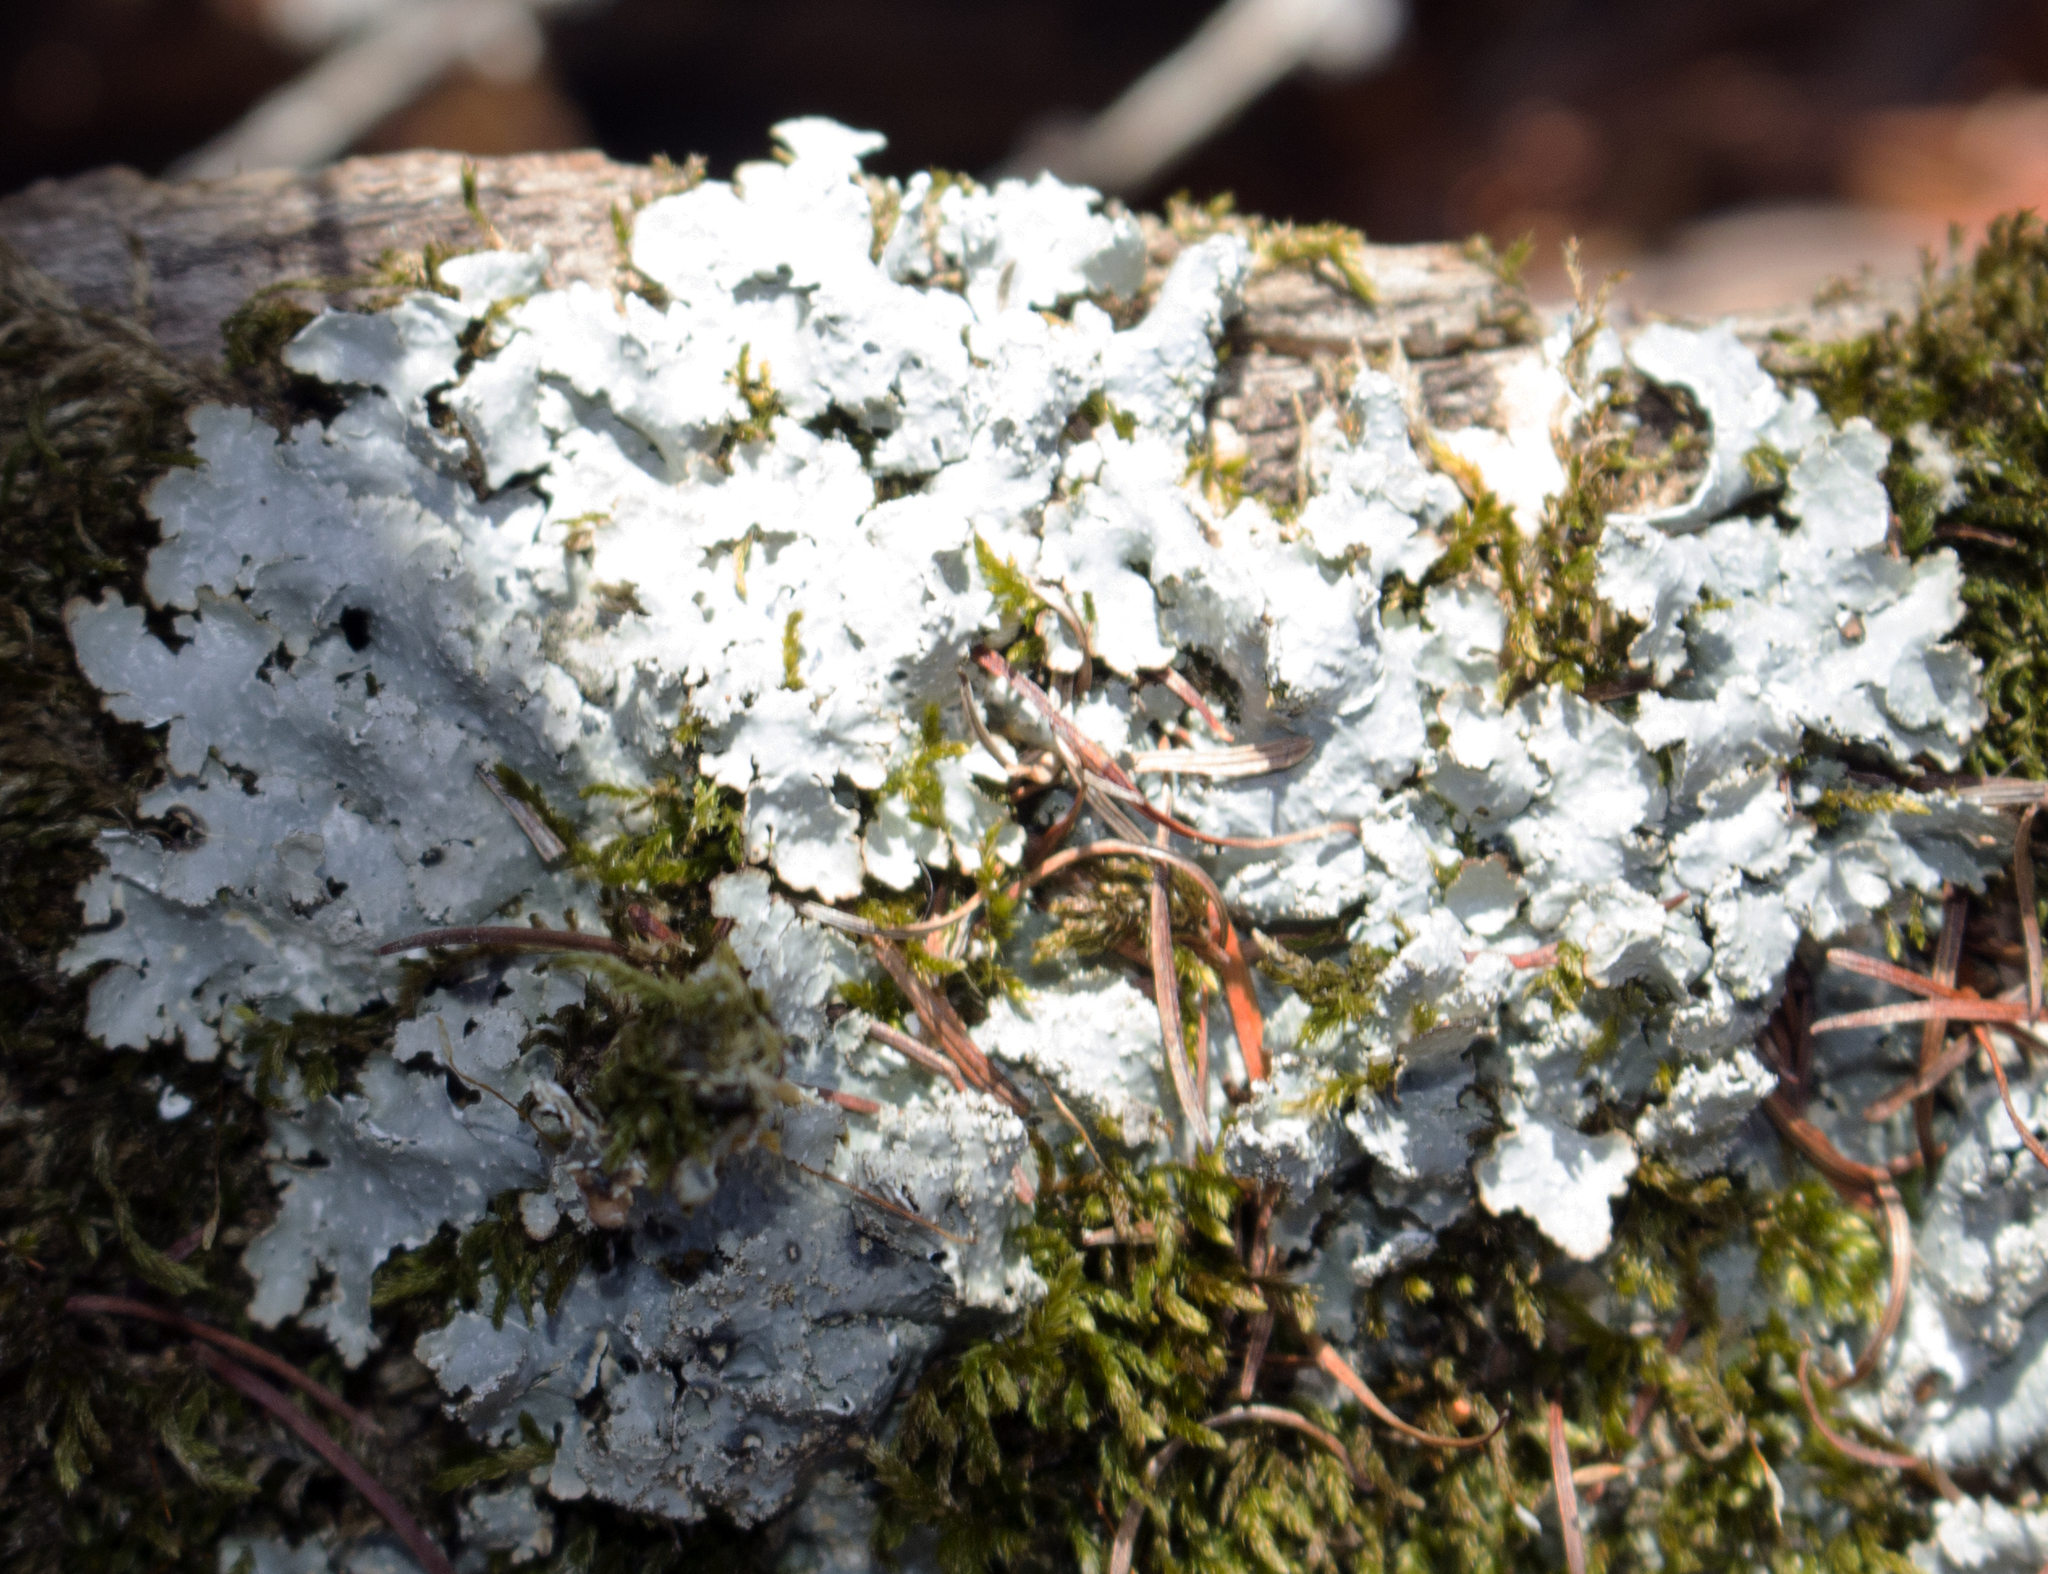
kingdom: Fungi
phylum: Ascomycota
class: Lecanoromycetes
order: Lecanorales
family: Parmeliaceae
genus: Punctelia
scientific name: Punctelia rudecta
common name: Rough speckled shield lichen
